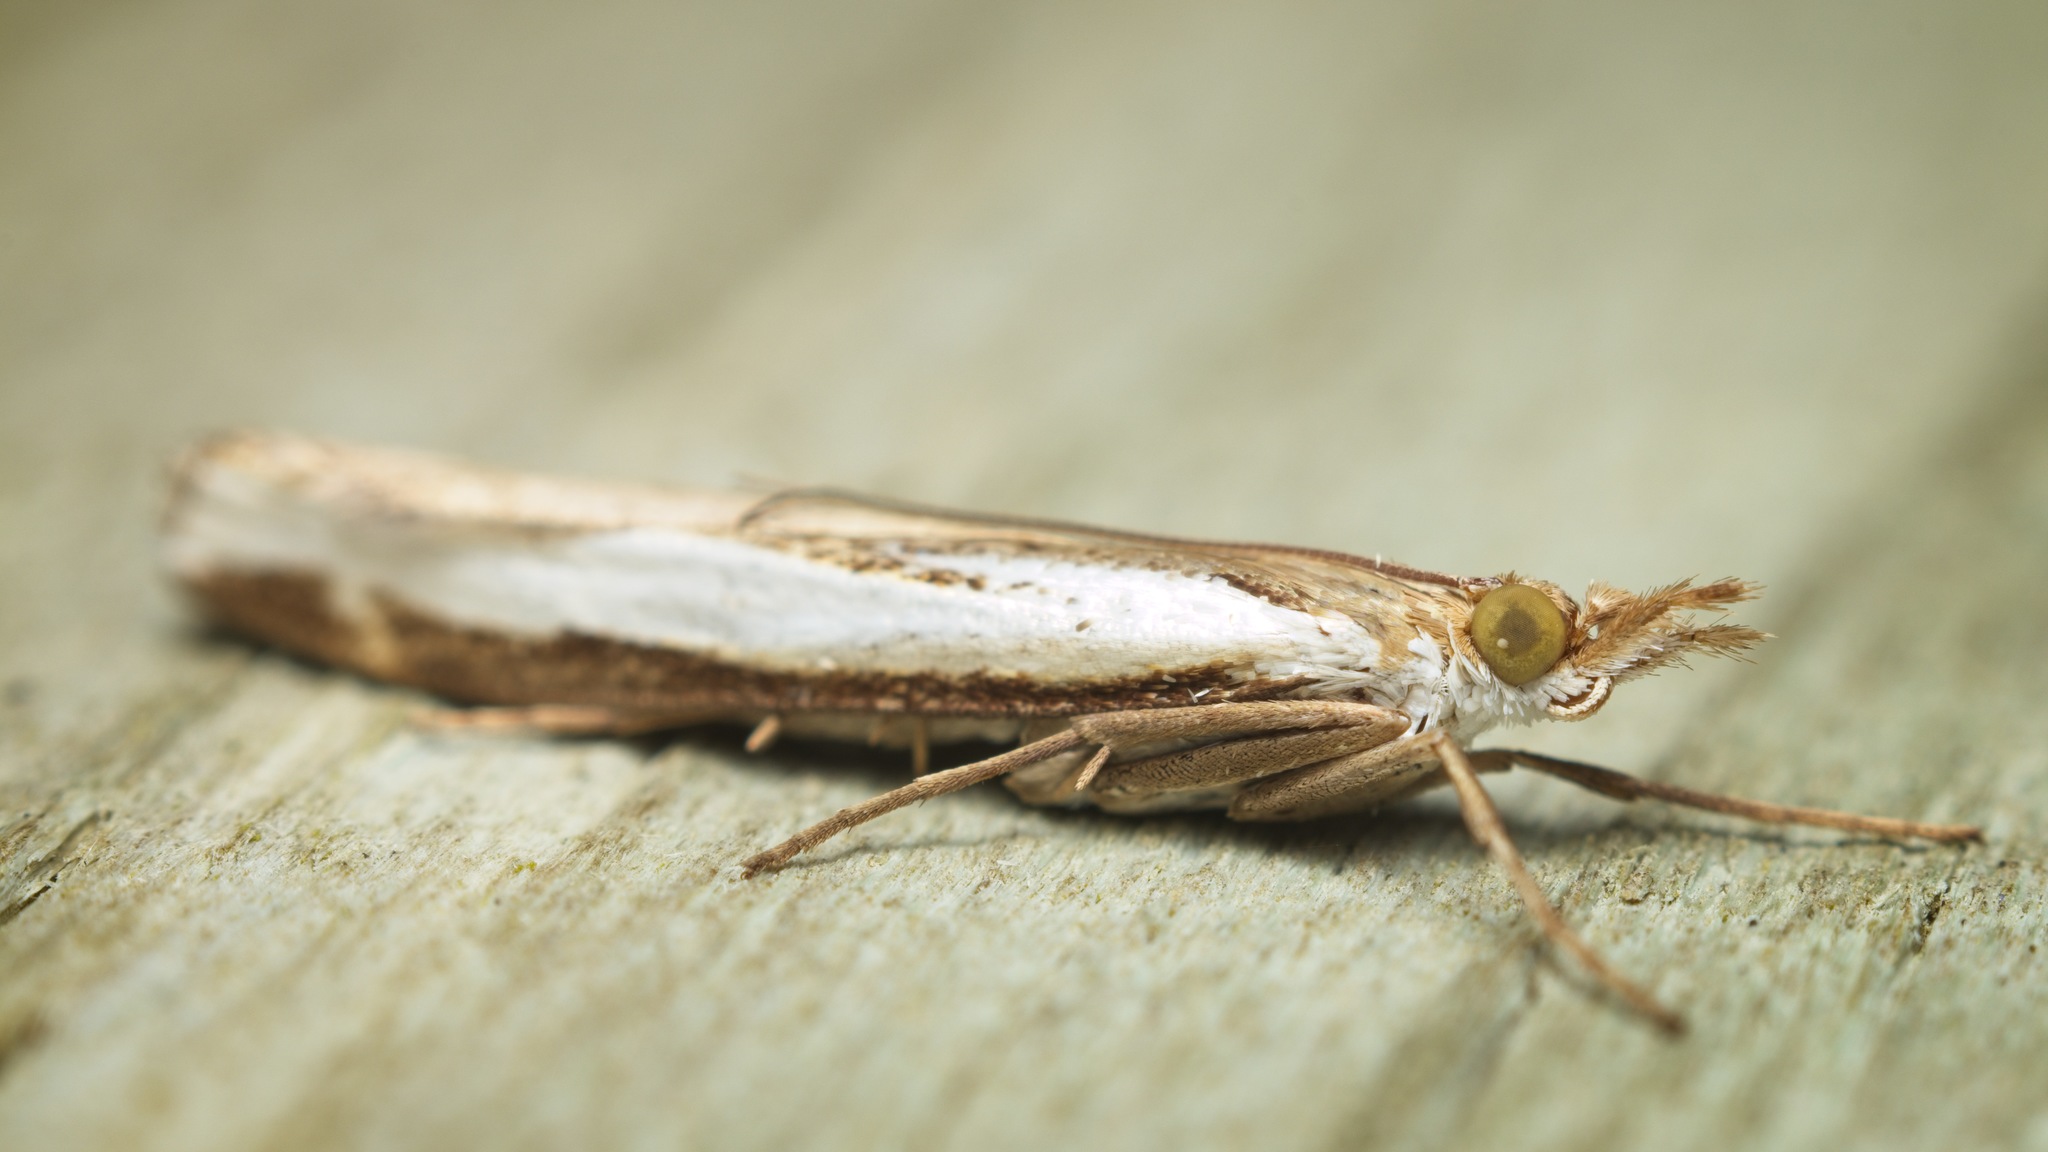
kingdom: Animalia
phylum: Arthropoda
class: Insecta
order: Lepidoptera
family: Crambidae
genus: Orocrambus
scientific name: Orocrambus flexuosellus
